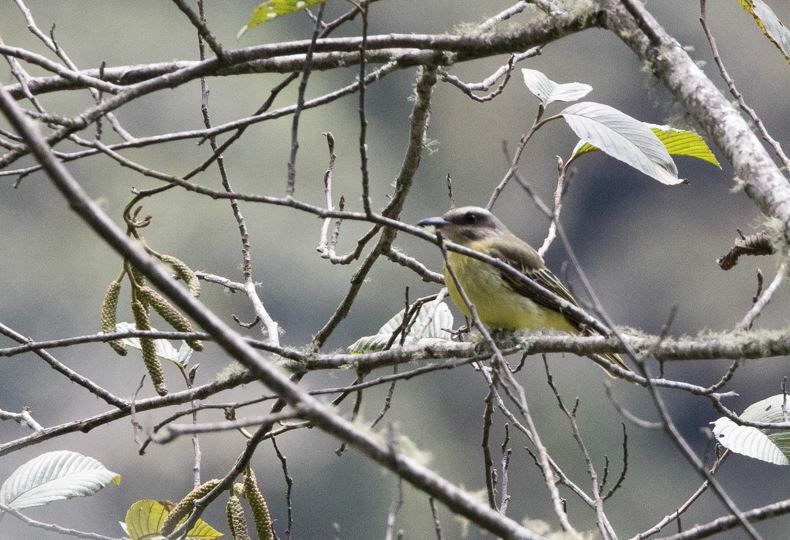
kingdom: Animalia
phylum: Chordata
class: Aves
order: Passeriformes
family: Tyrannidae
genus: Myiodynastes
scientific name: Myiodynastes chrysocephalus
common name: Golden-crowned flycatcher
